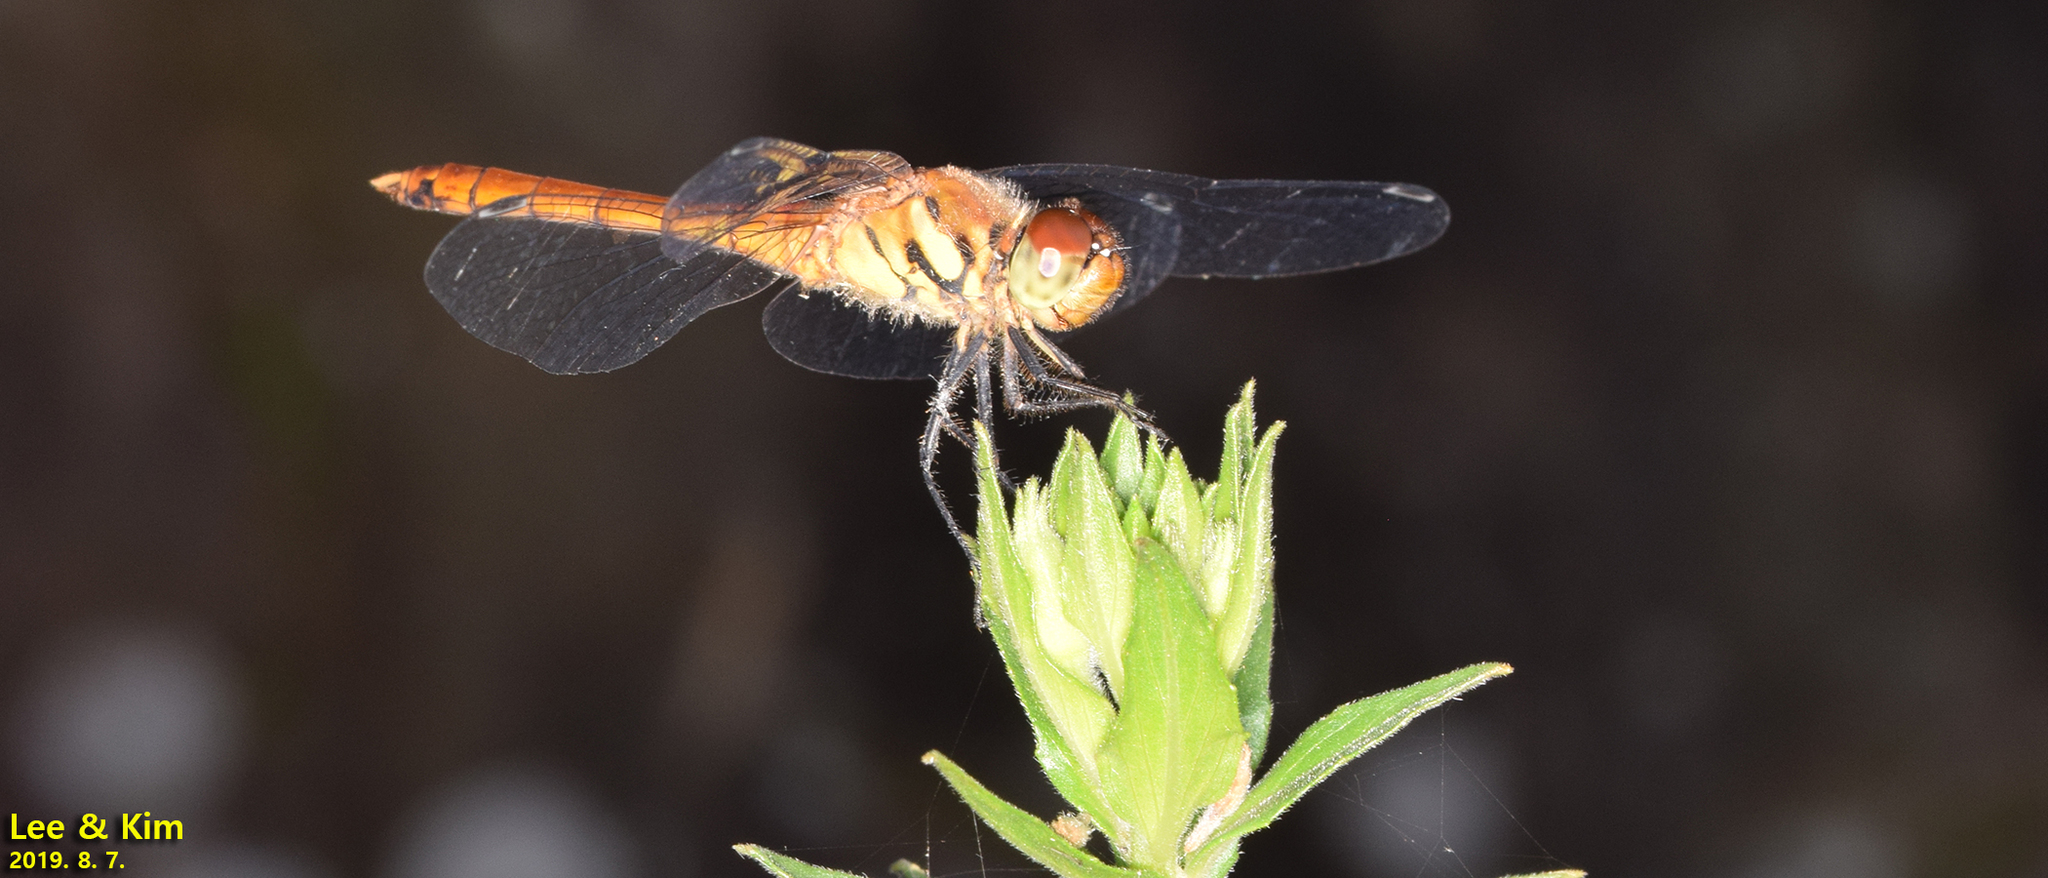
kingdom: Animalia
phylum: Arthropoda
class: Insecta
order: Odonata
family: Libellulidae
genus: Sympetrum
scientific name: Sympetrum darwinianum
